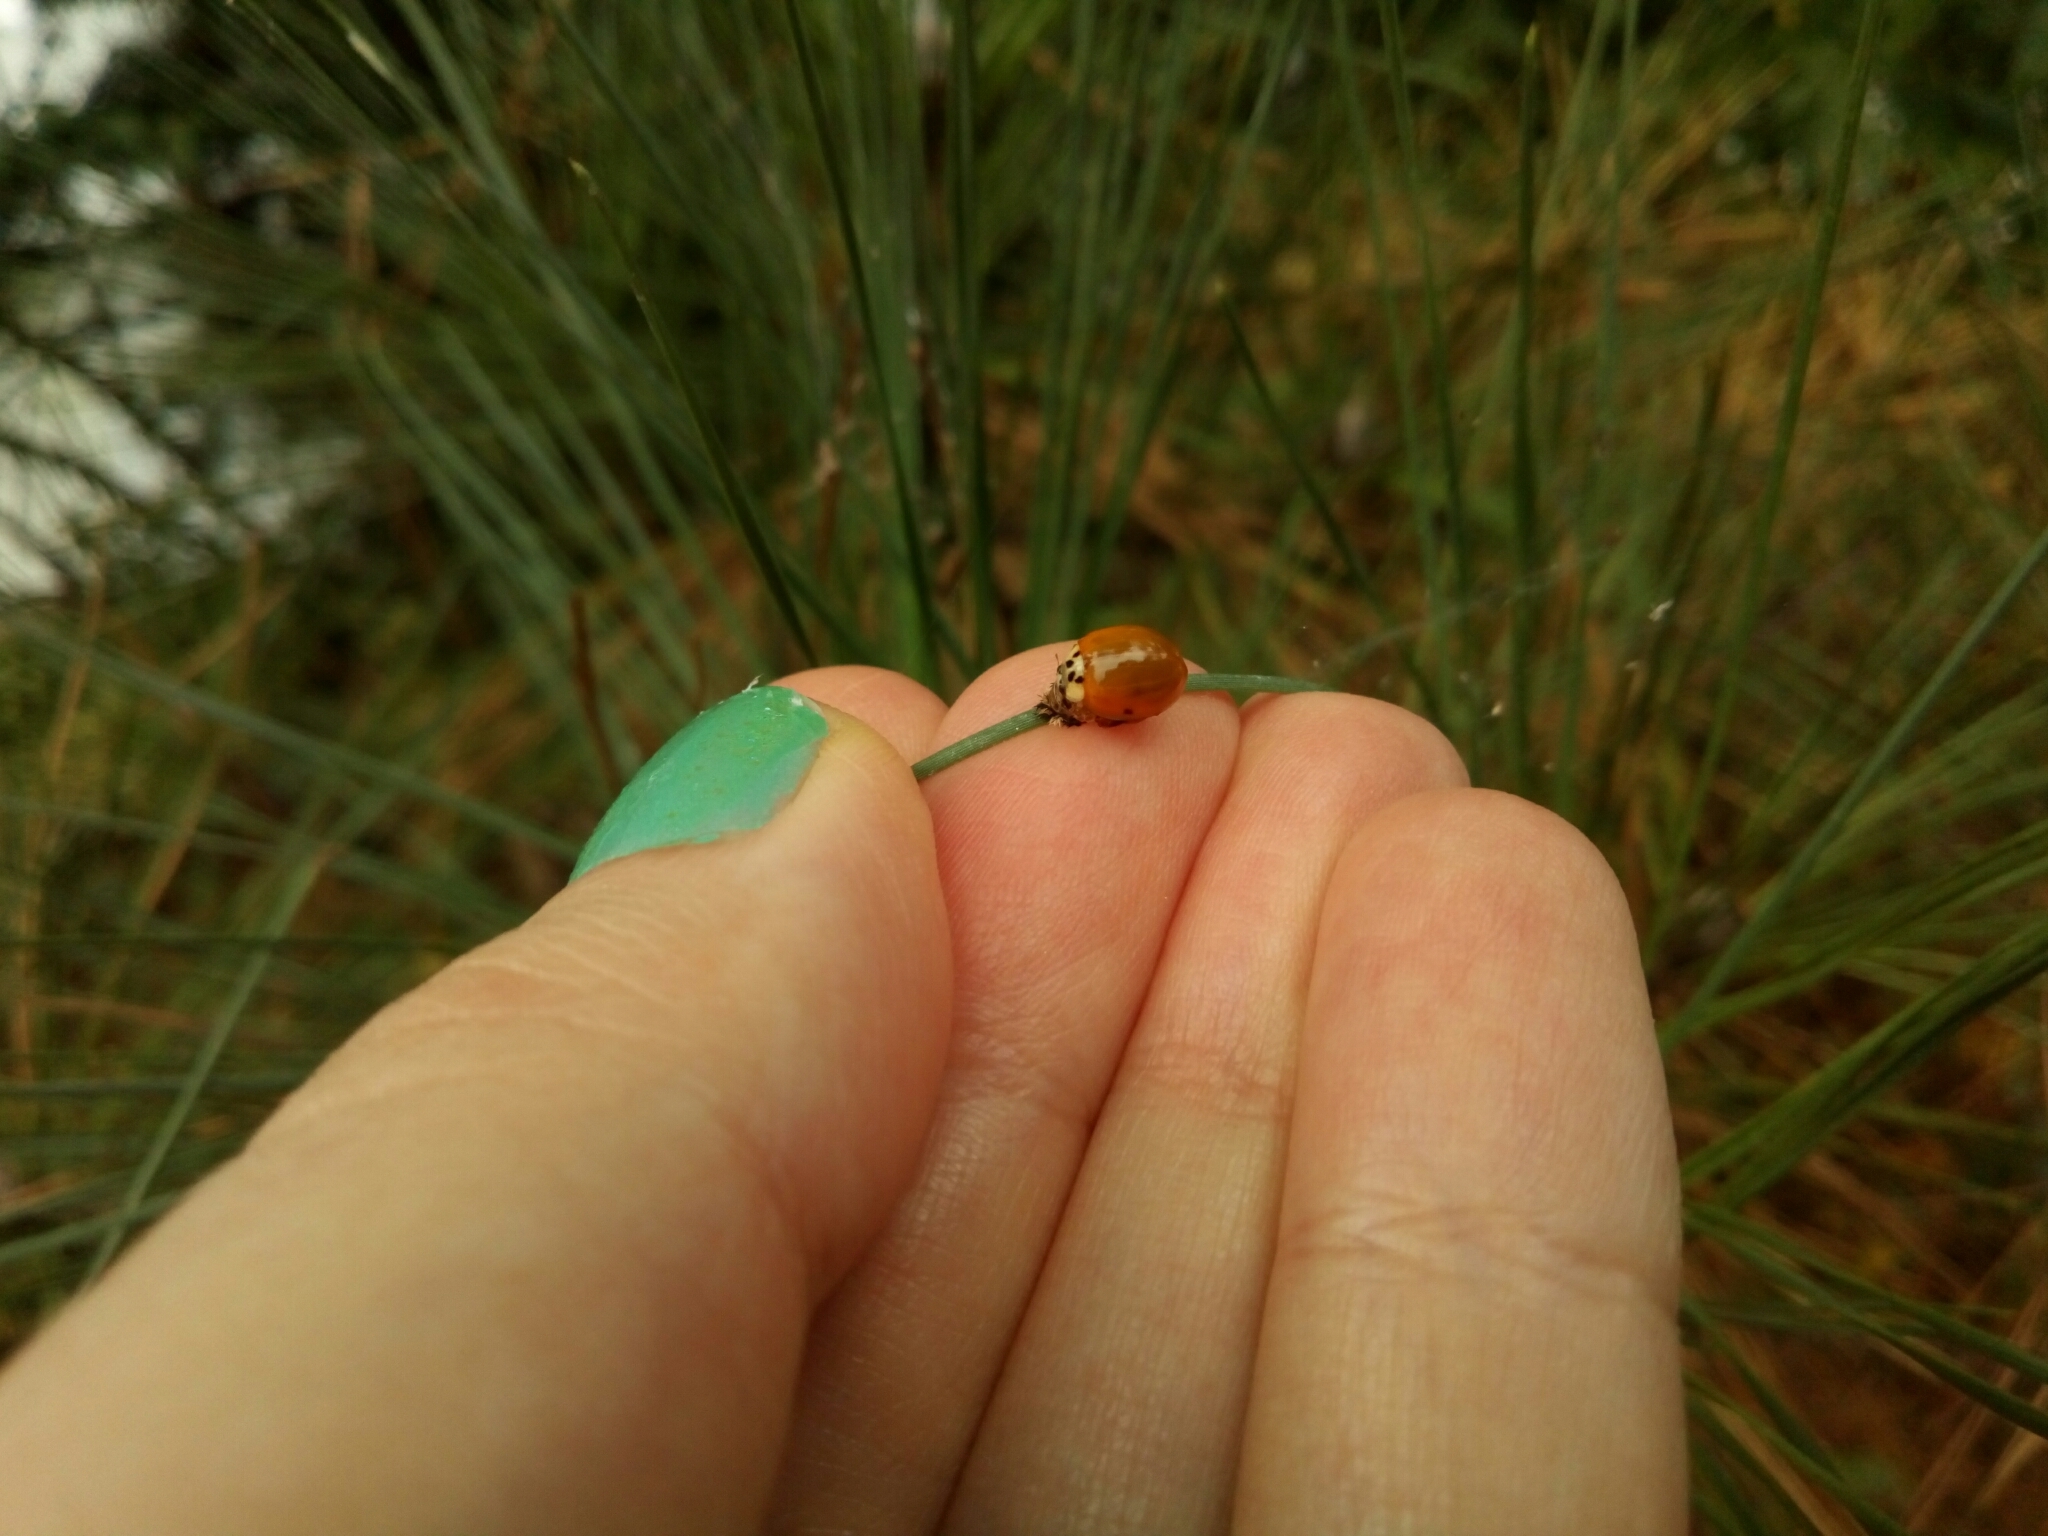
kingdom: Animalia
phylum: Arthropoda
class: Insecta
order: Coleoptera
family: Coccinellidae
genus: Harmonia
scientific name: Harmonia axyridis
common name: Harlequin ladybird
